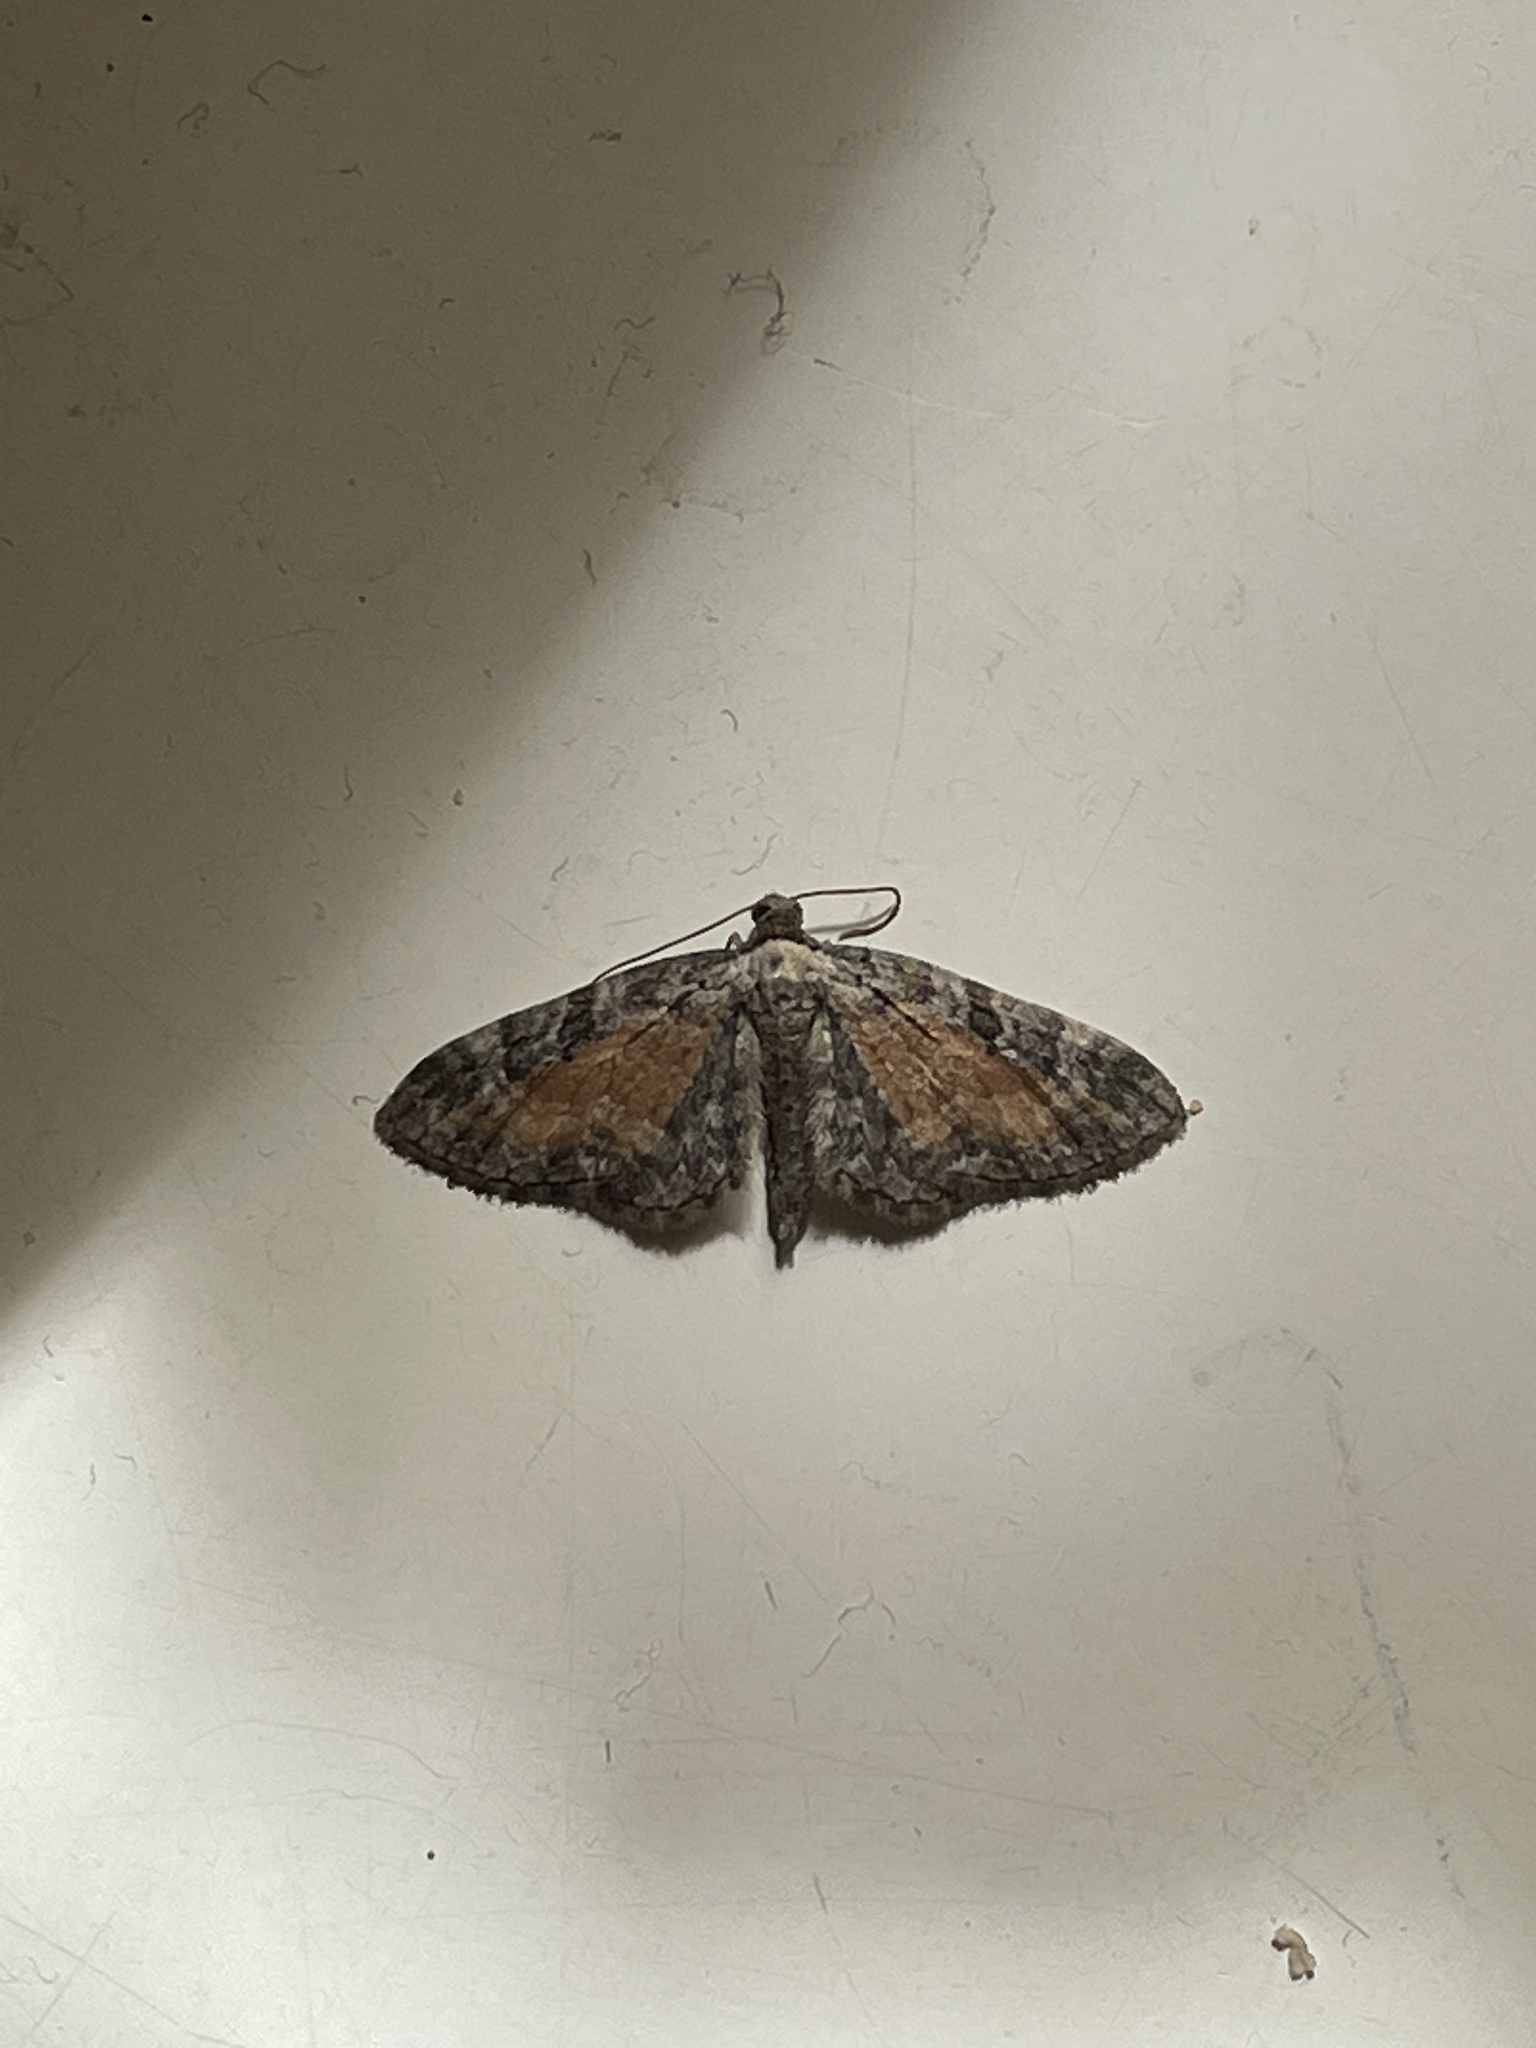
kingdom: Animalia
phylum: Arthropoda
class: Insecta
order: Lepidoptera
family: Geometridae
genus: Eupithecia
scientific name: Eupithecia icterata
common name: Tawny speckled pug
